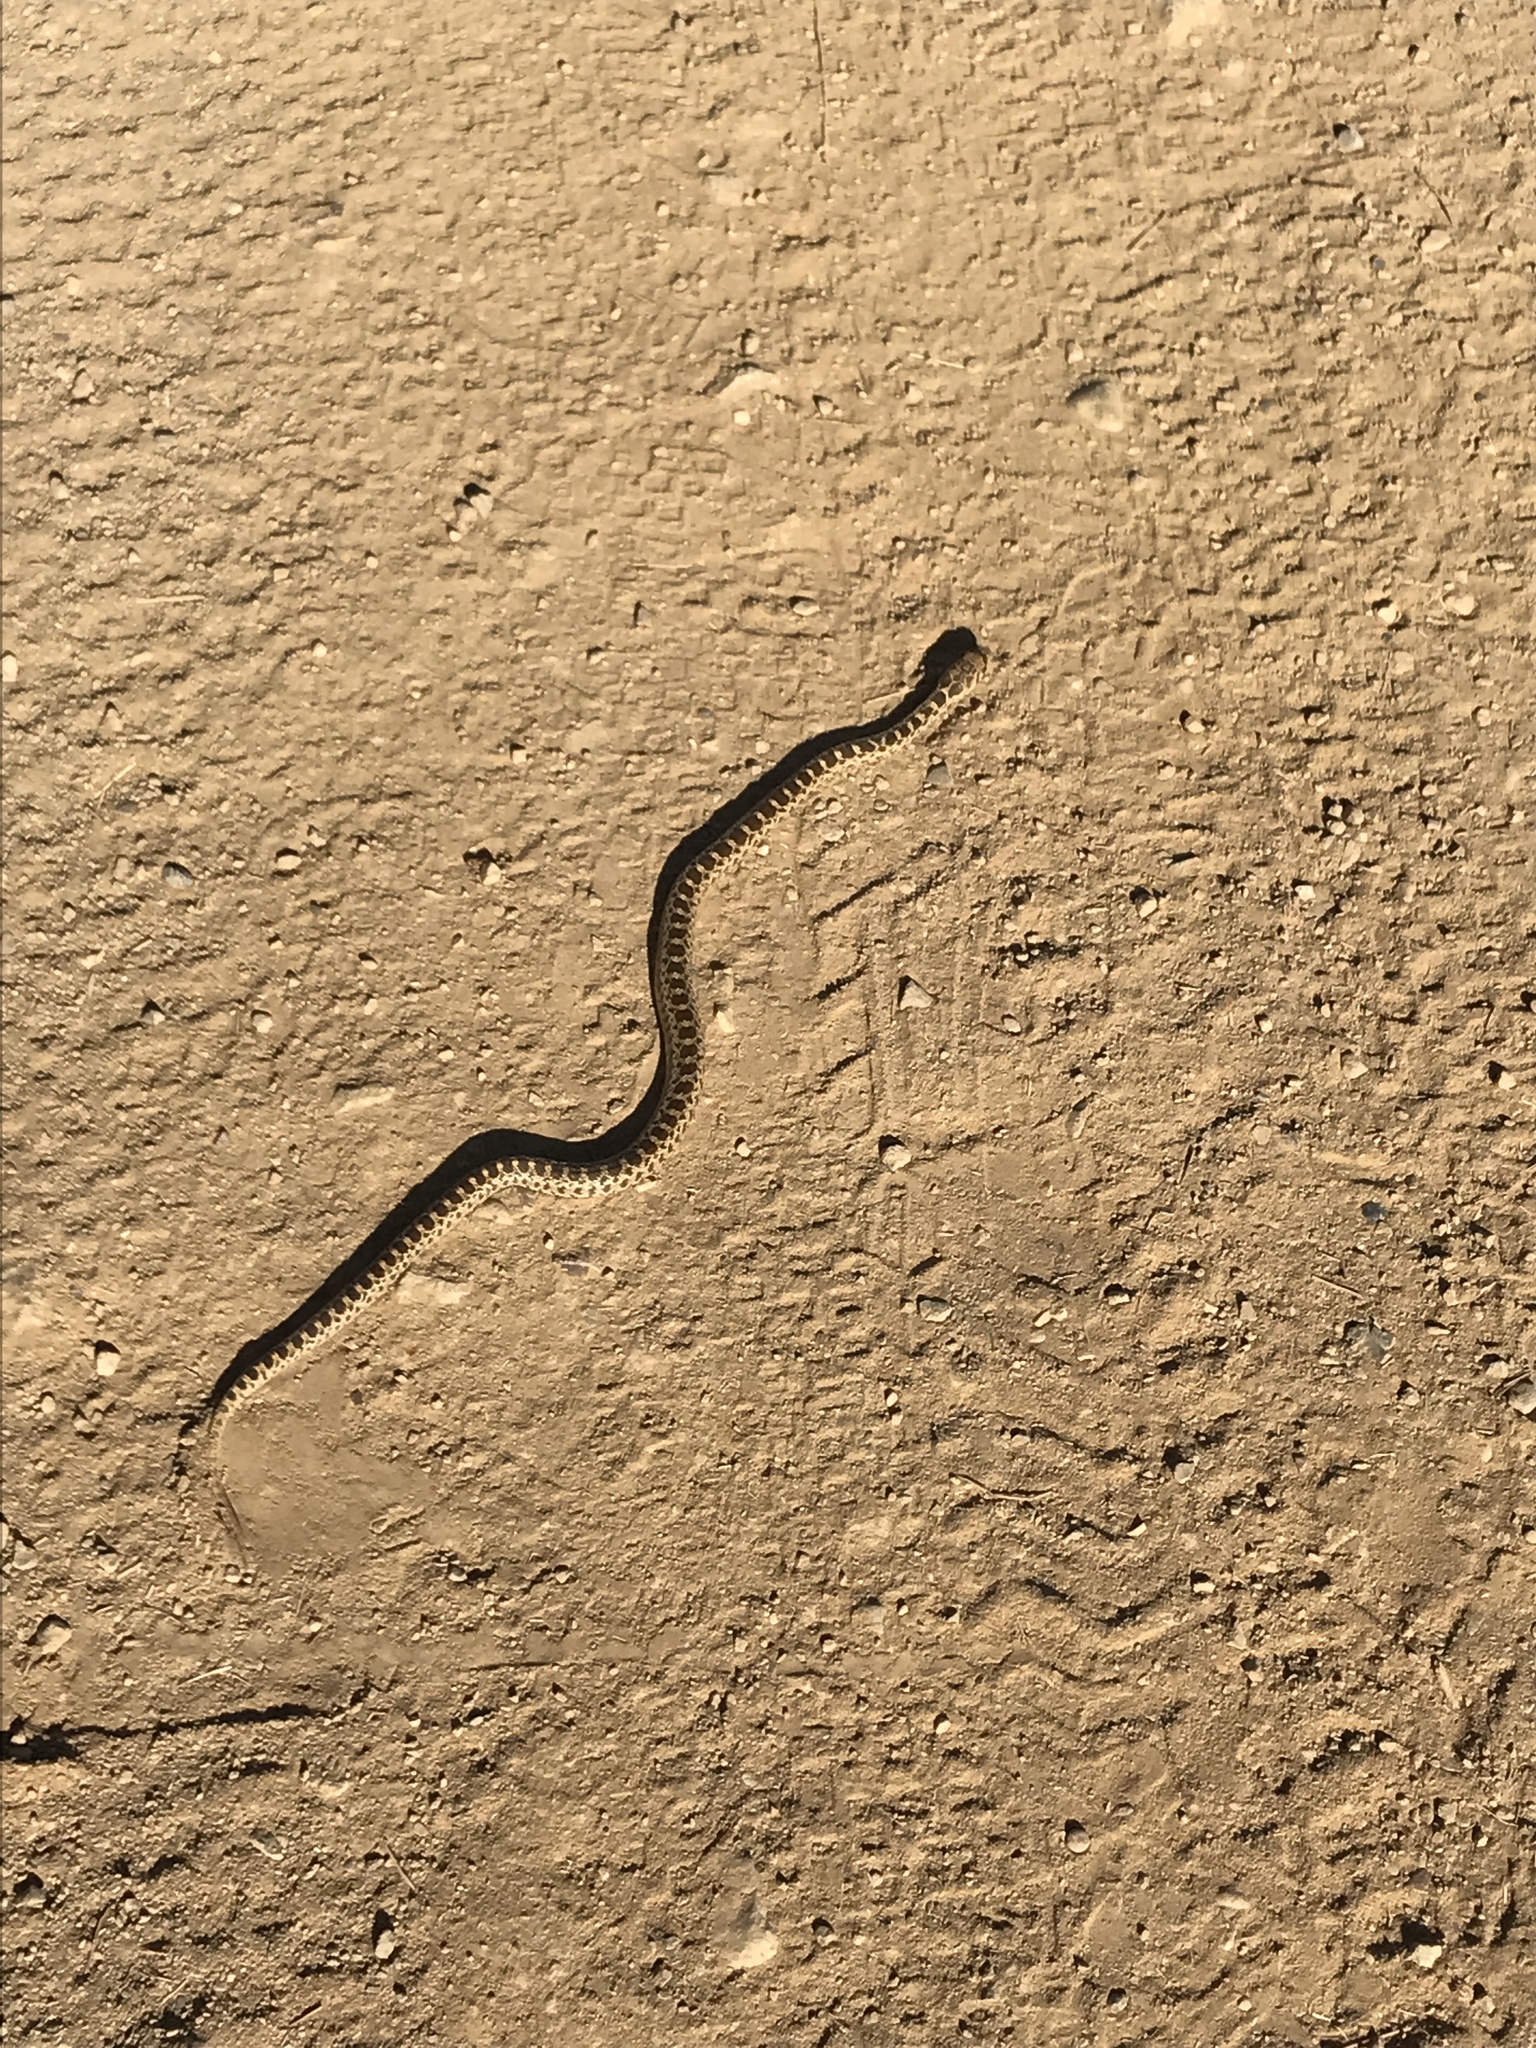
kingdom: Animalia
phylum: Chordata
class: Squamata
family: Colubridae
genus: Pituophis
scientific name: Pituophis catenifer
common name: Gopher snake
